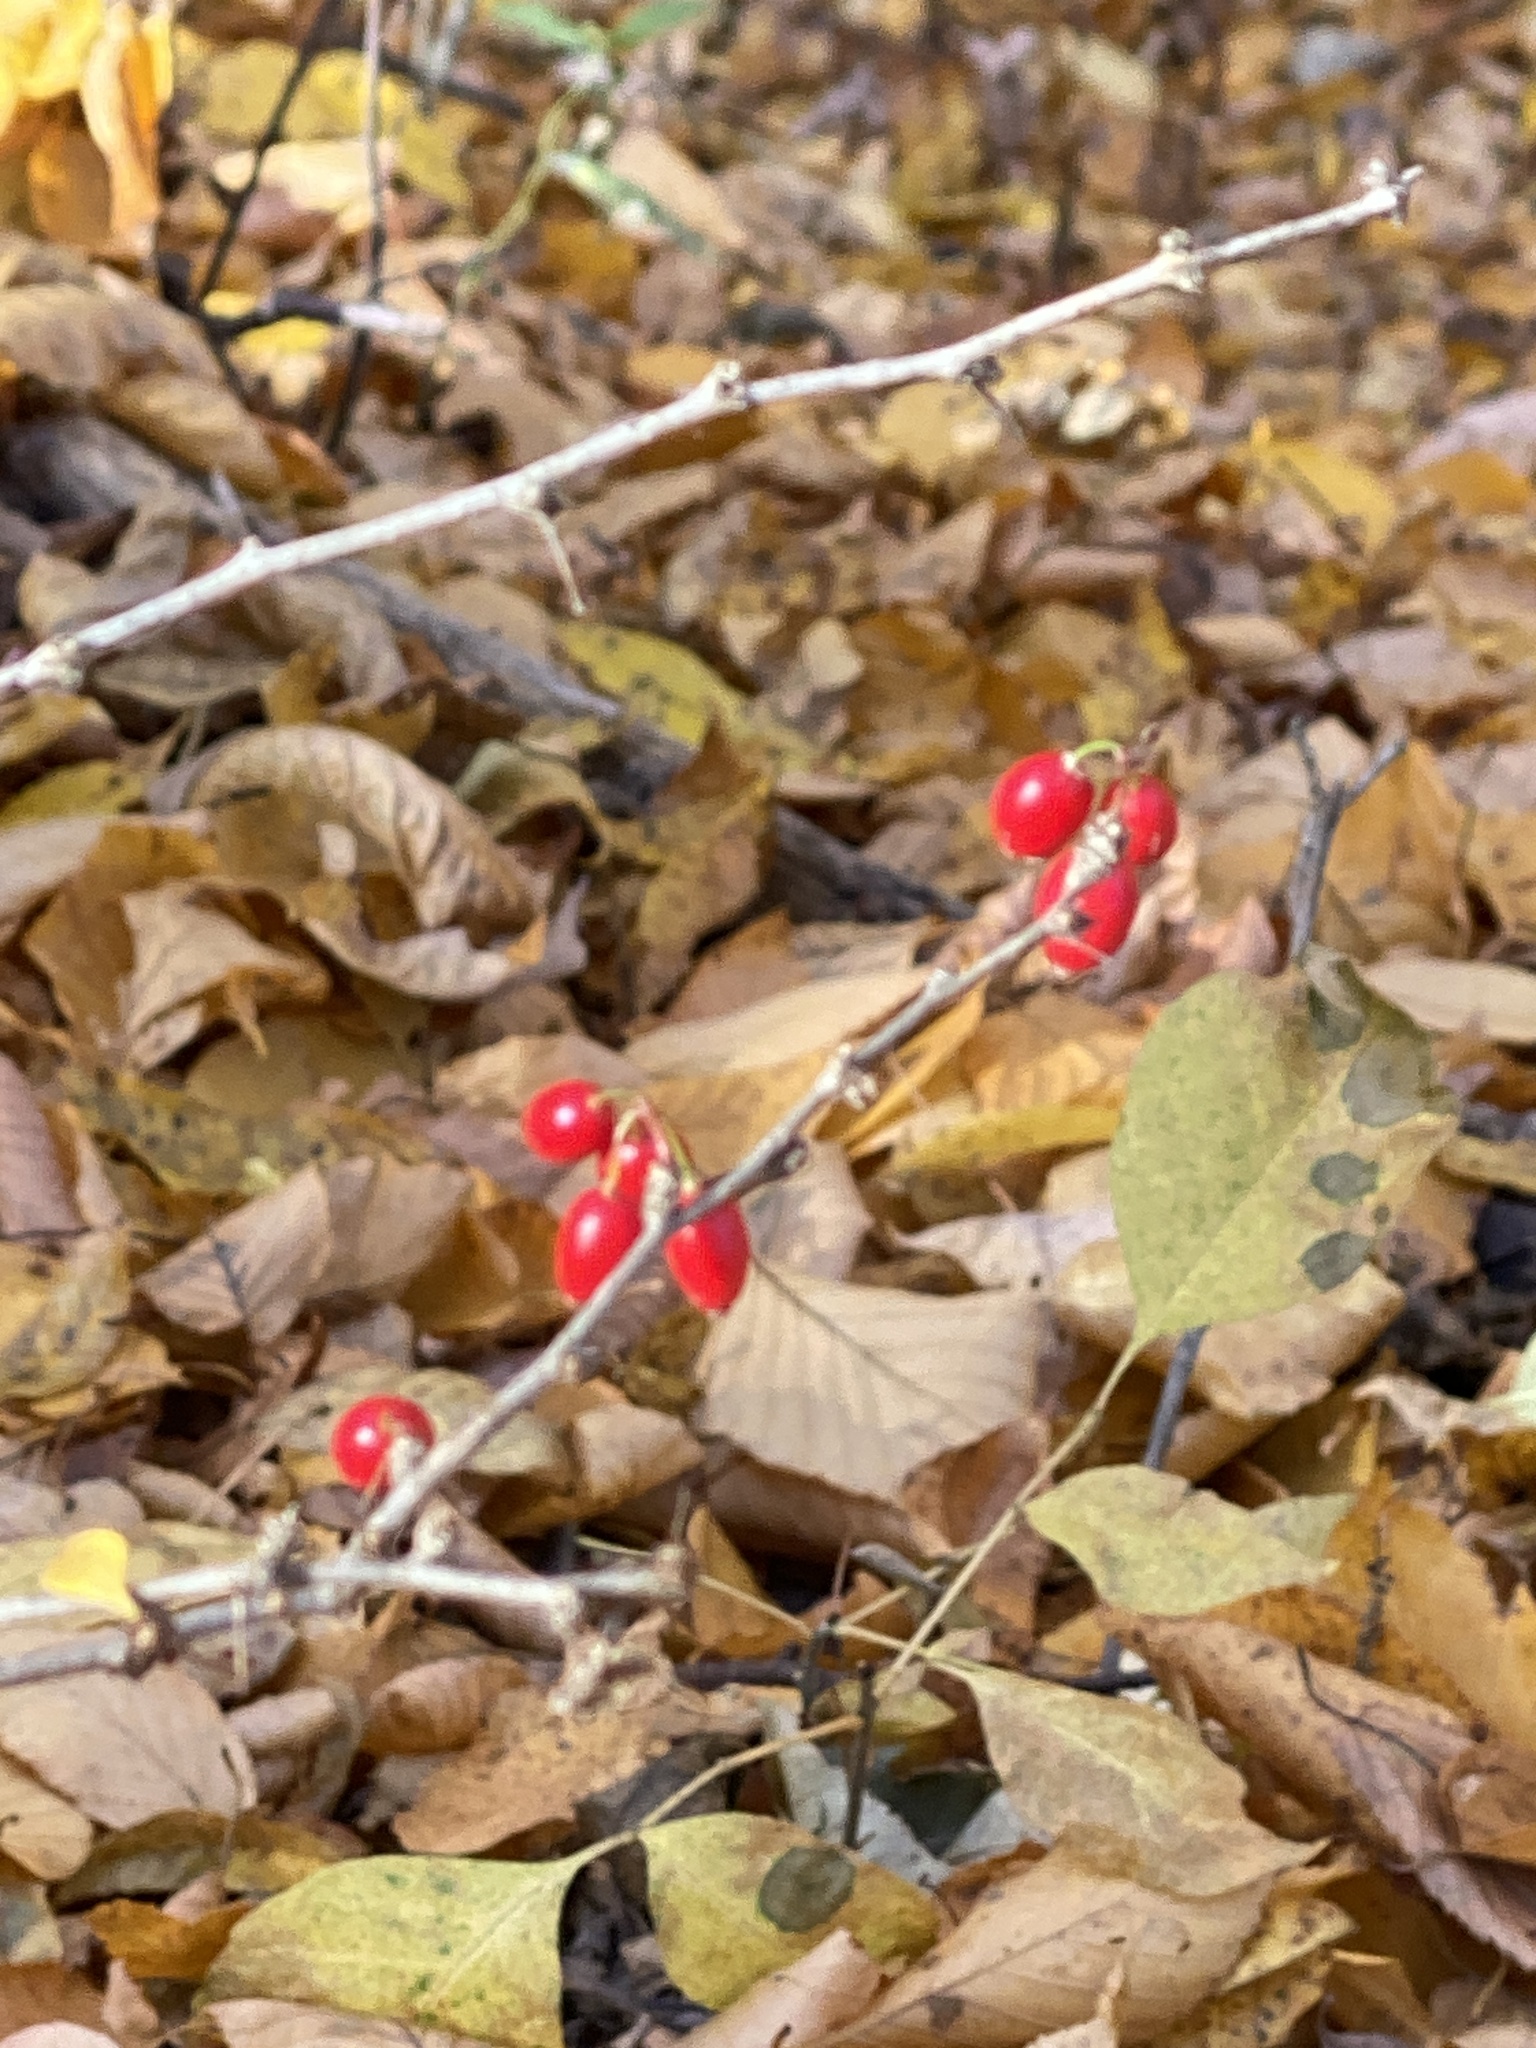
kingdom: Plantae
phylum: Tracheophyta
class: Magnoliopsida
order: Ranunculales
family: Berberidaceae
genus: Berberis
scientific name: Berberis thunbergii
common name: Japanese barberry
